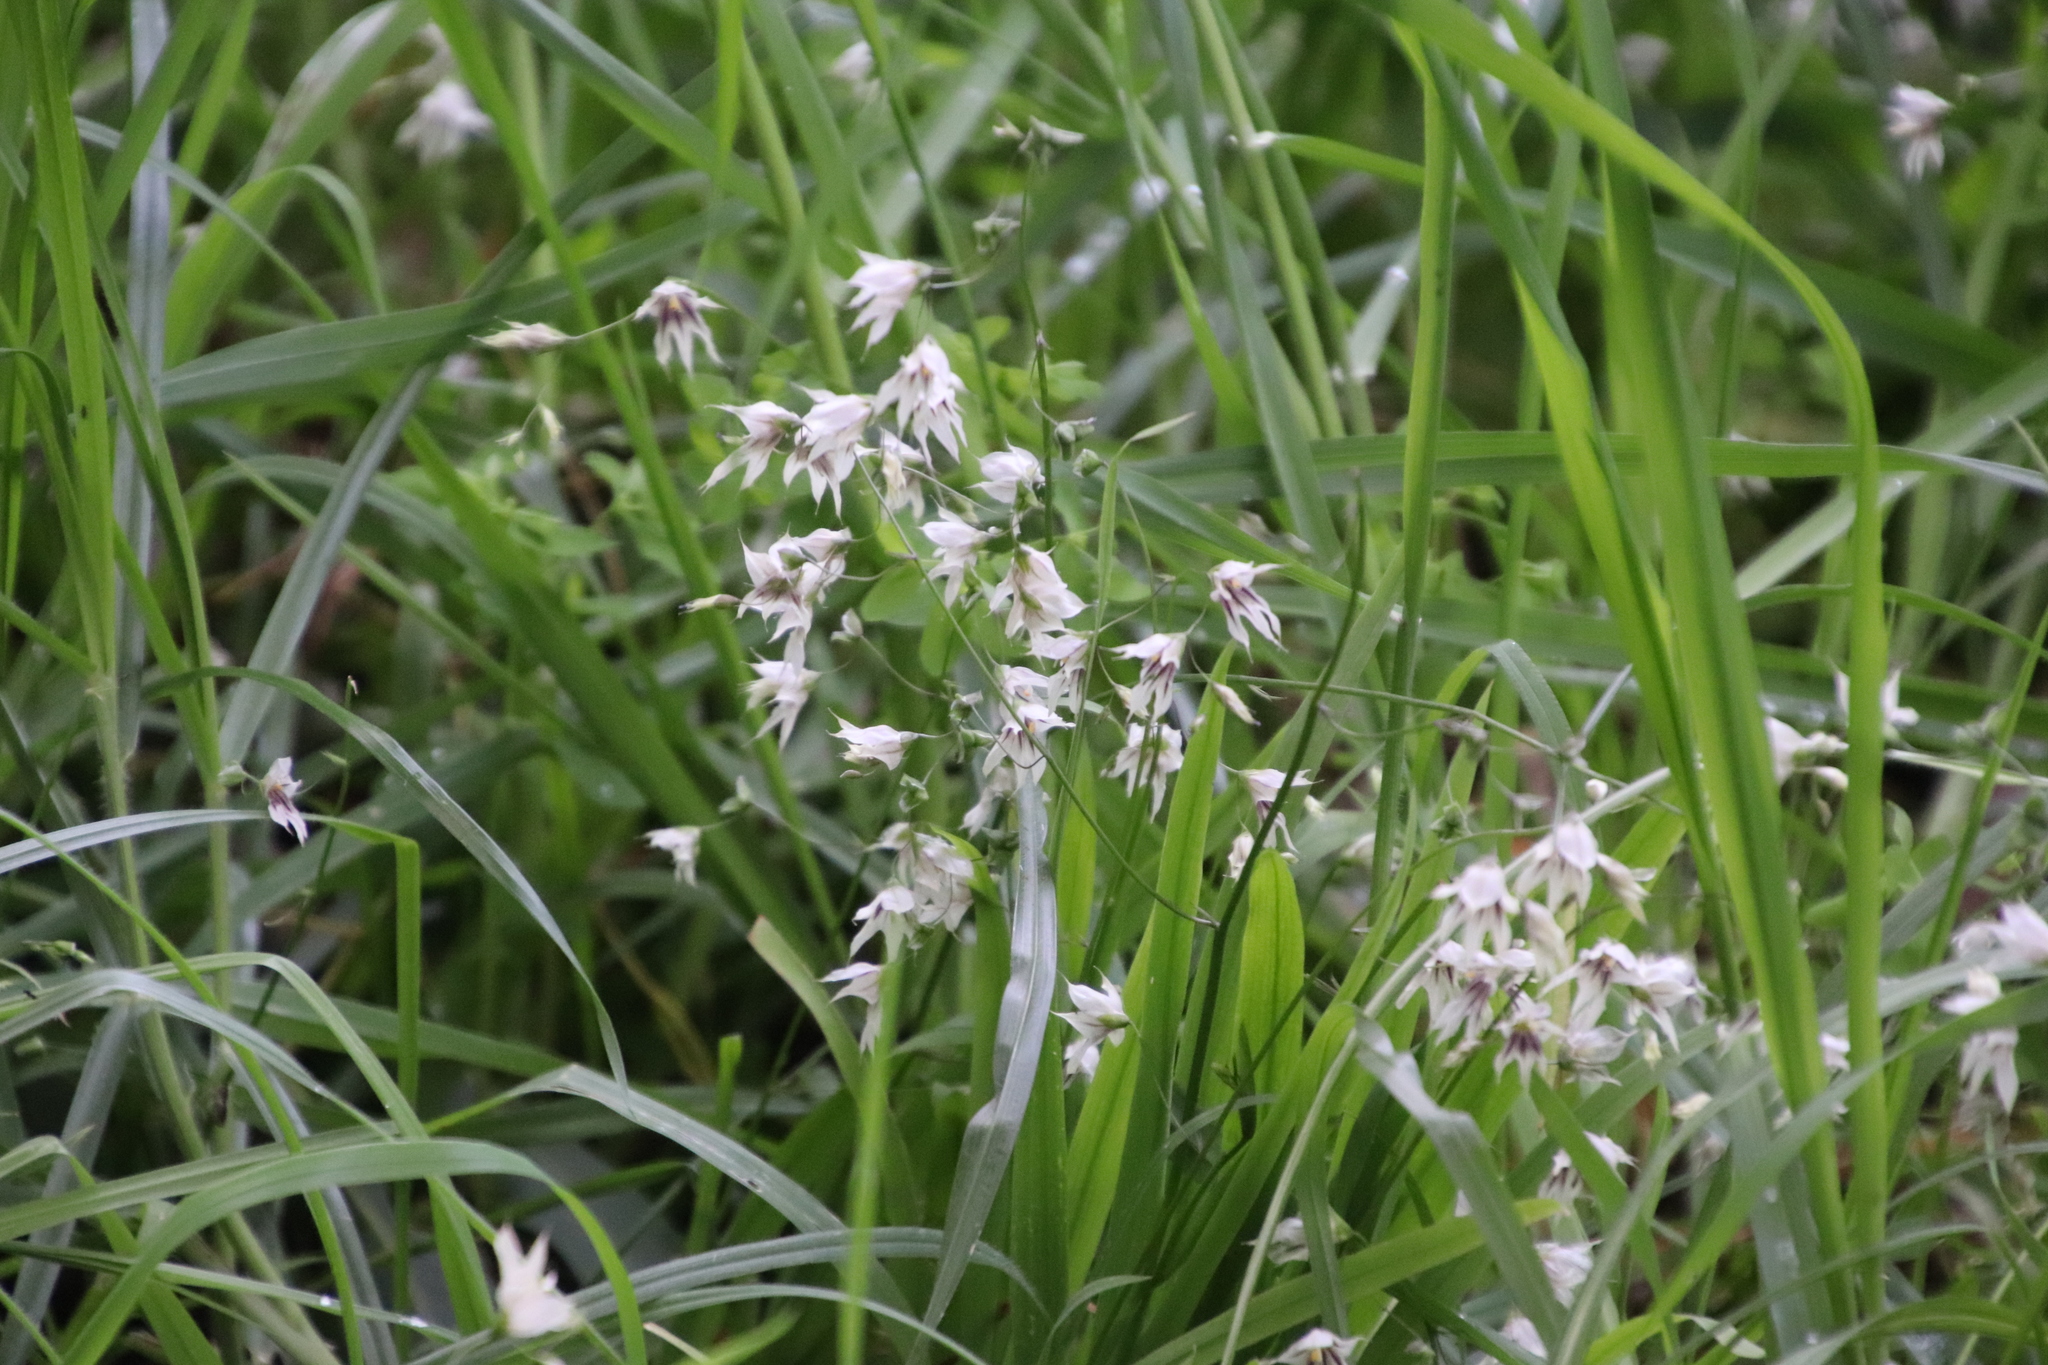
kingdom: Plantae
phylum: Tracheophyta
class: Liliopsida
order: Asparagales
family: Iridaceae
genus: Melasphaerula
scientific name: Melasphaerula graminea
